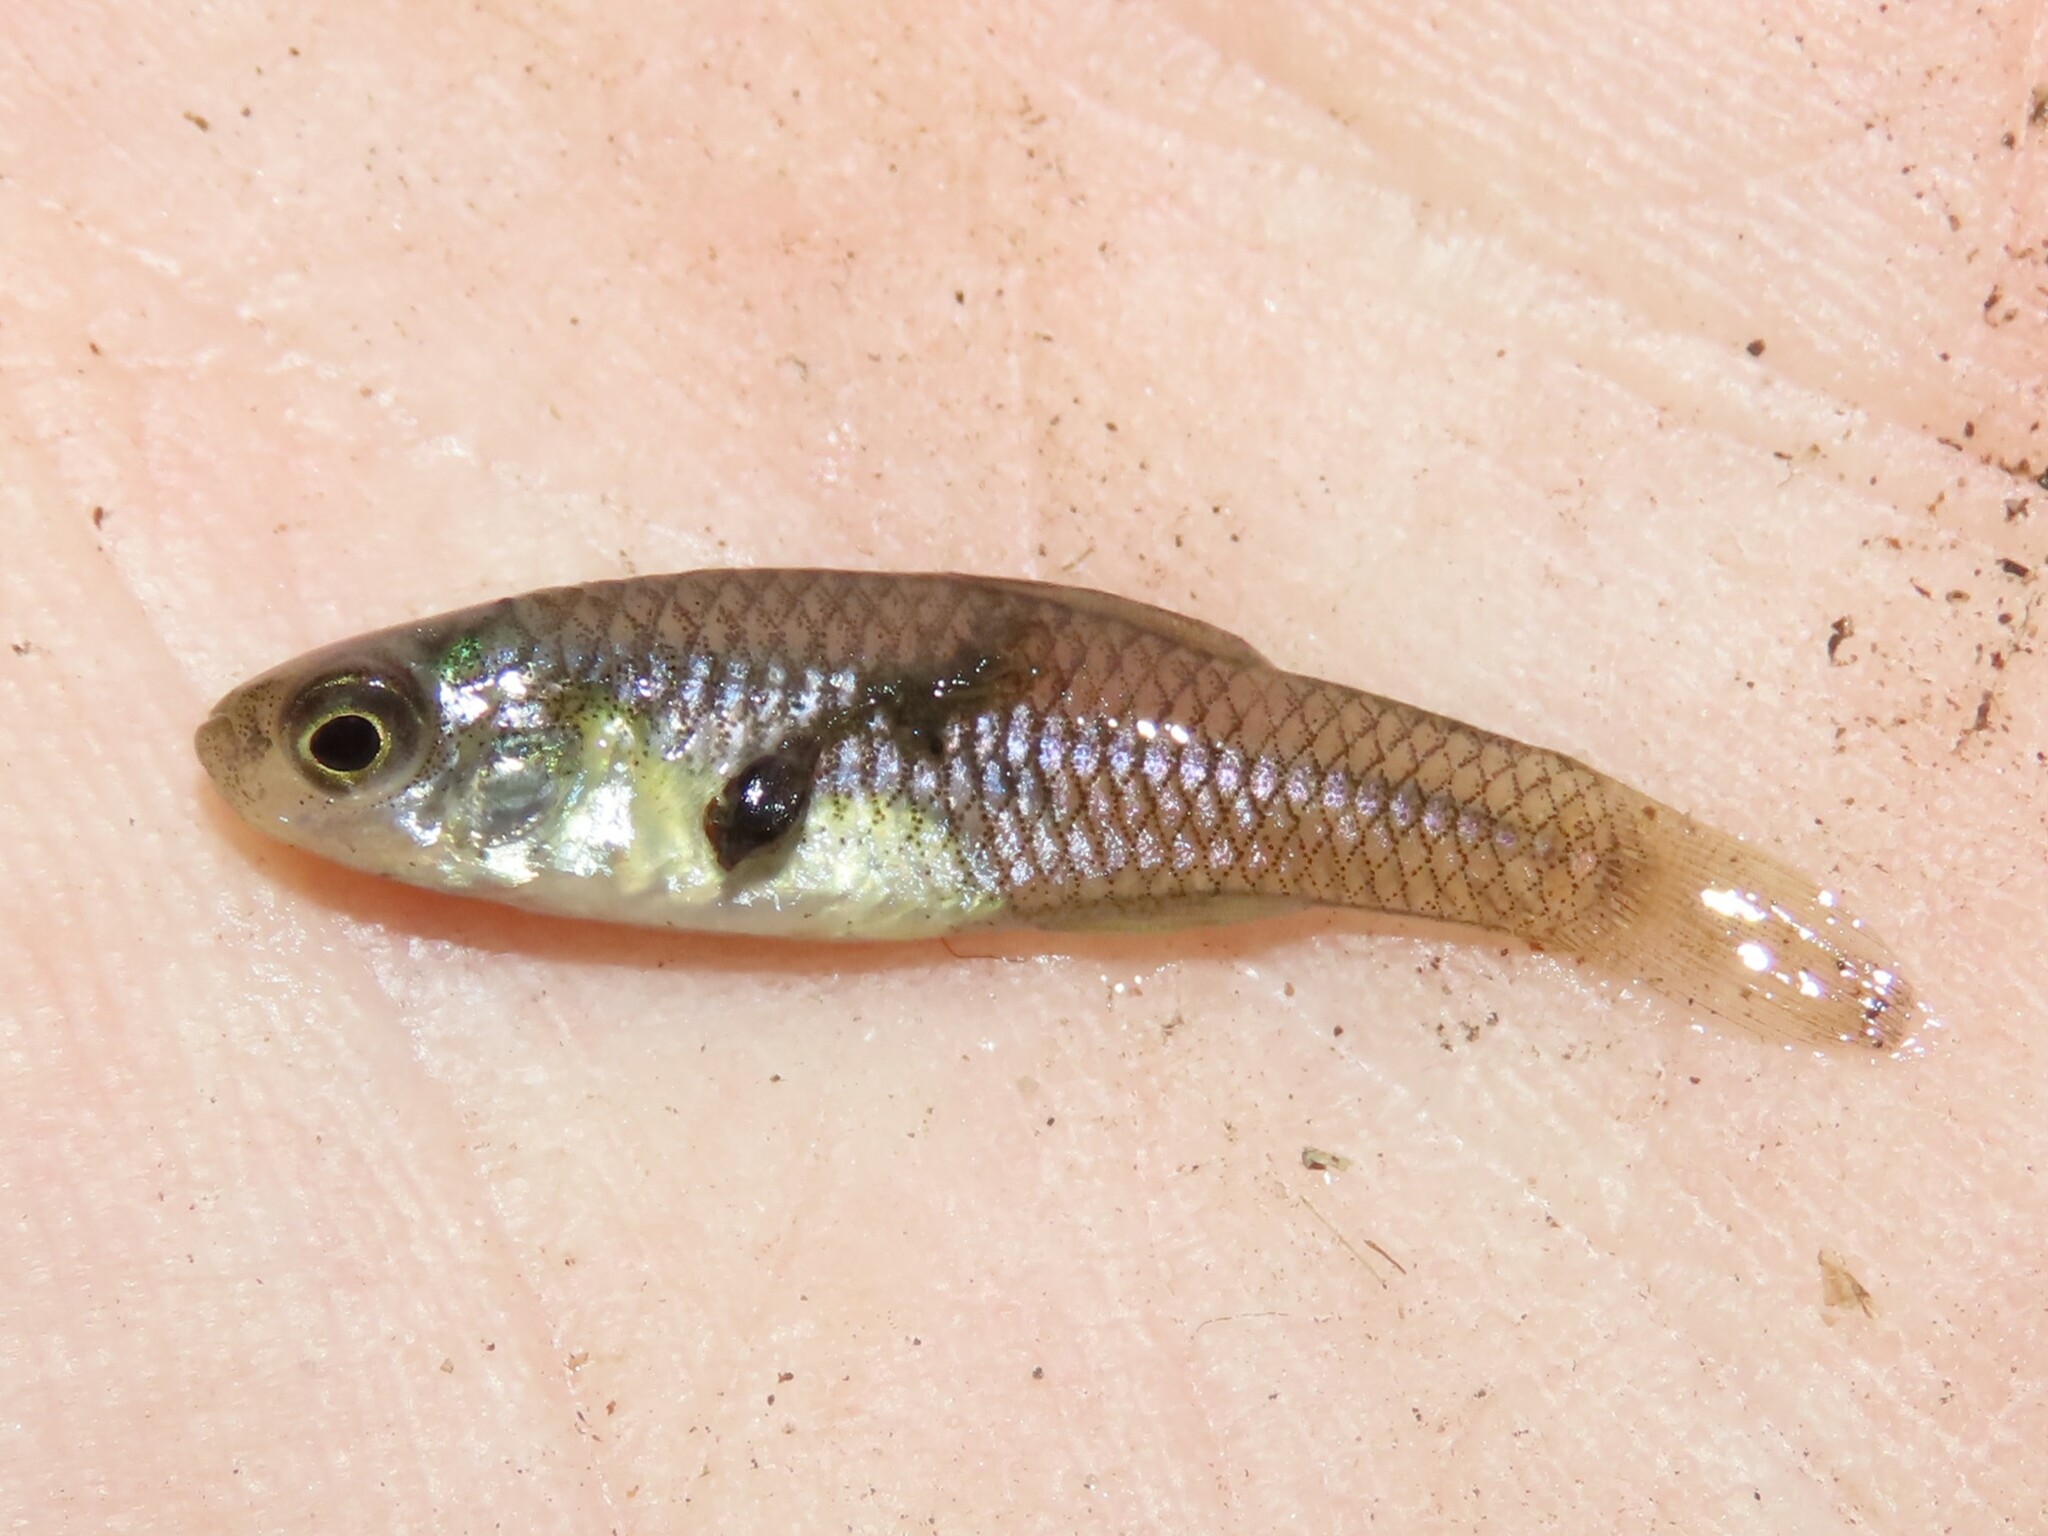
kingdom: Animalia
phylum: Chordata
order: Cyprinodontiformes
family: Fundulidae
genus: Lucania
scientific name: Lucania parva
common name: Rainwater killifish
